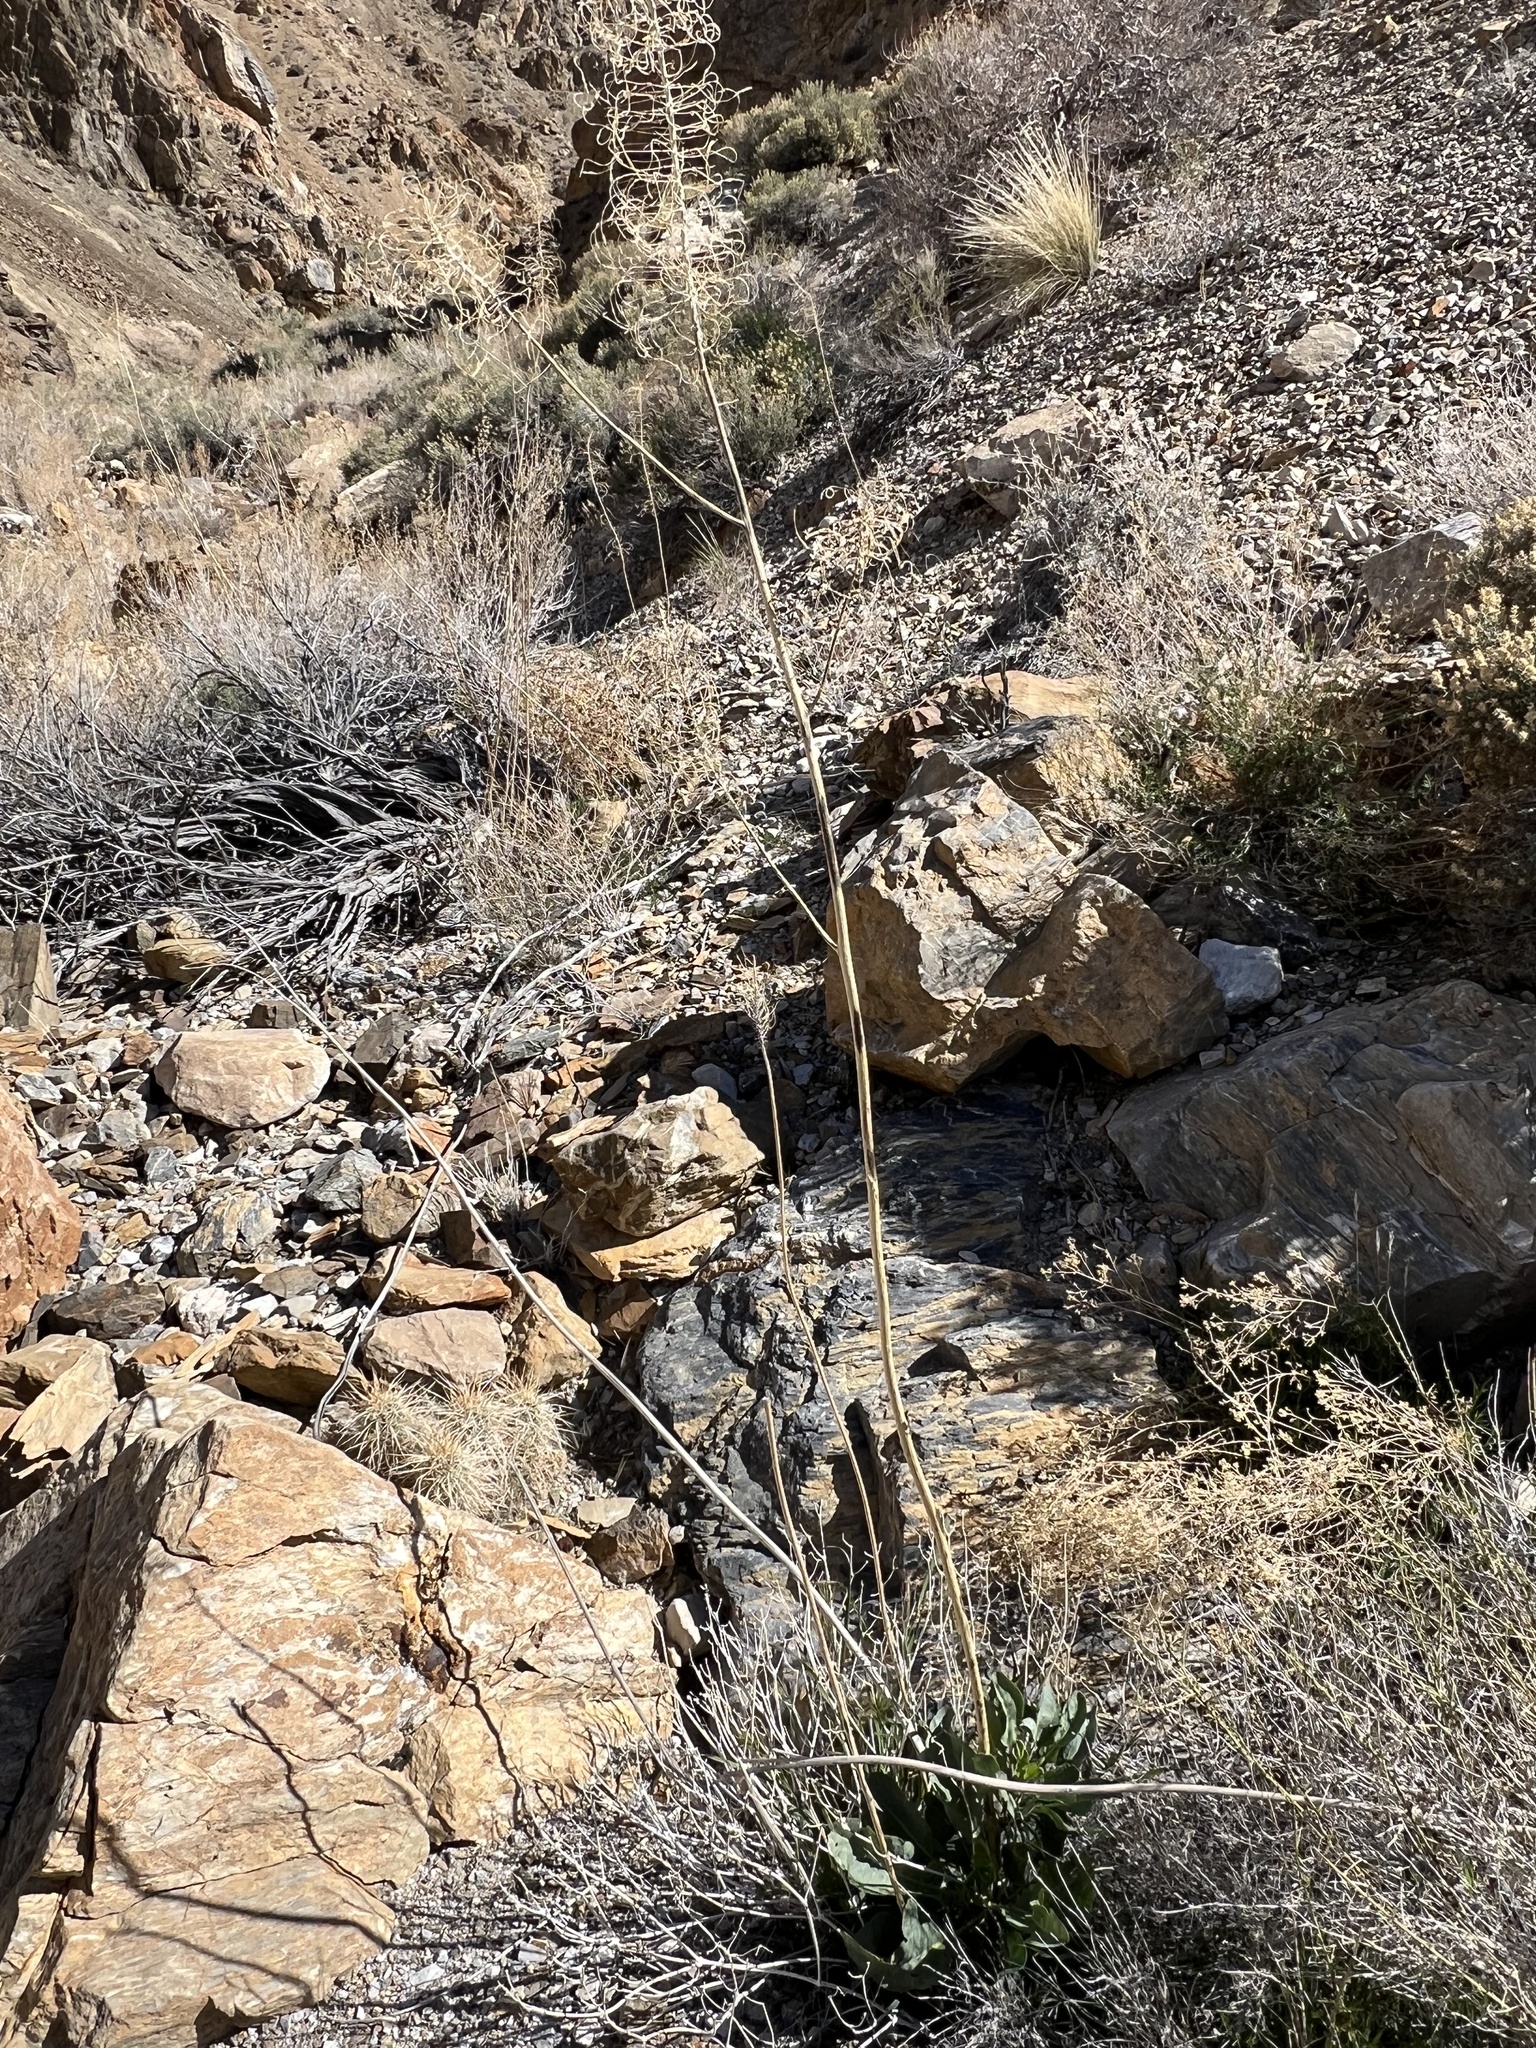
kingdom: Plantae
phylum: Tracheophyta
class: Magnoliopsida
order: Brassicales
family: Brassicaceae
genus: Stanleya
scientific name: Stanleya elata
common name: Panamint prince's plume
